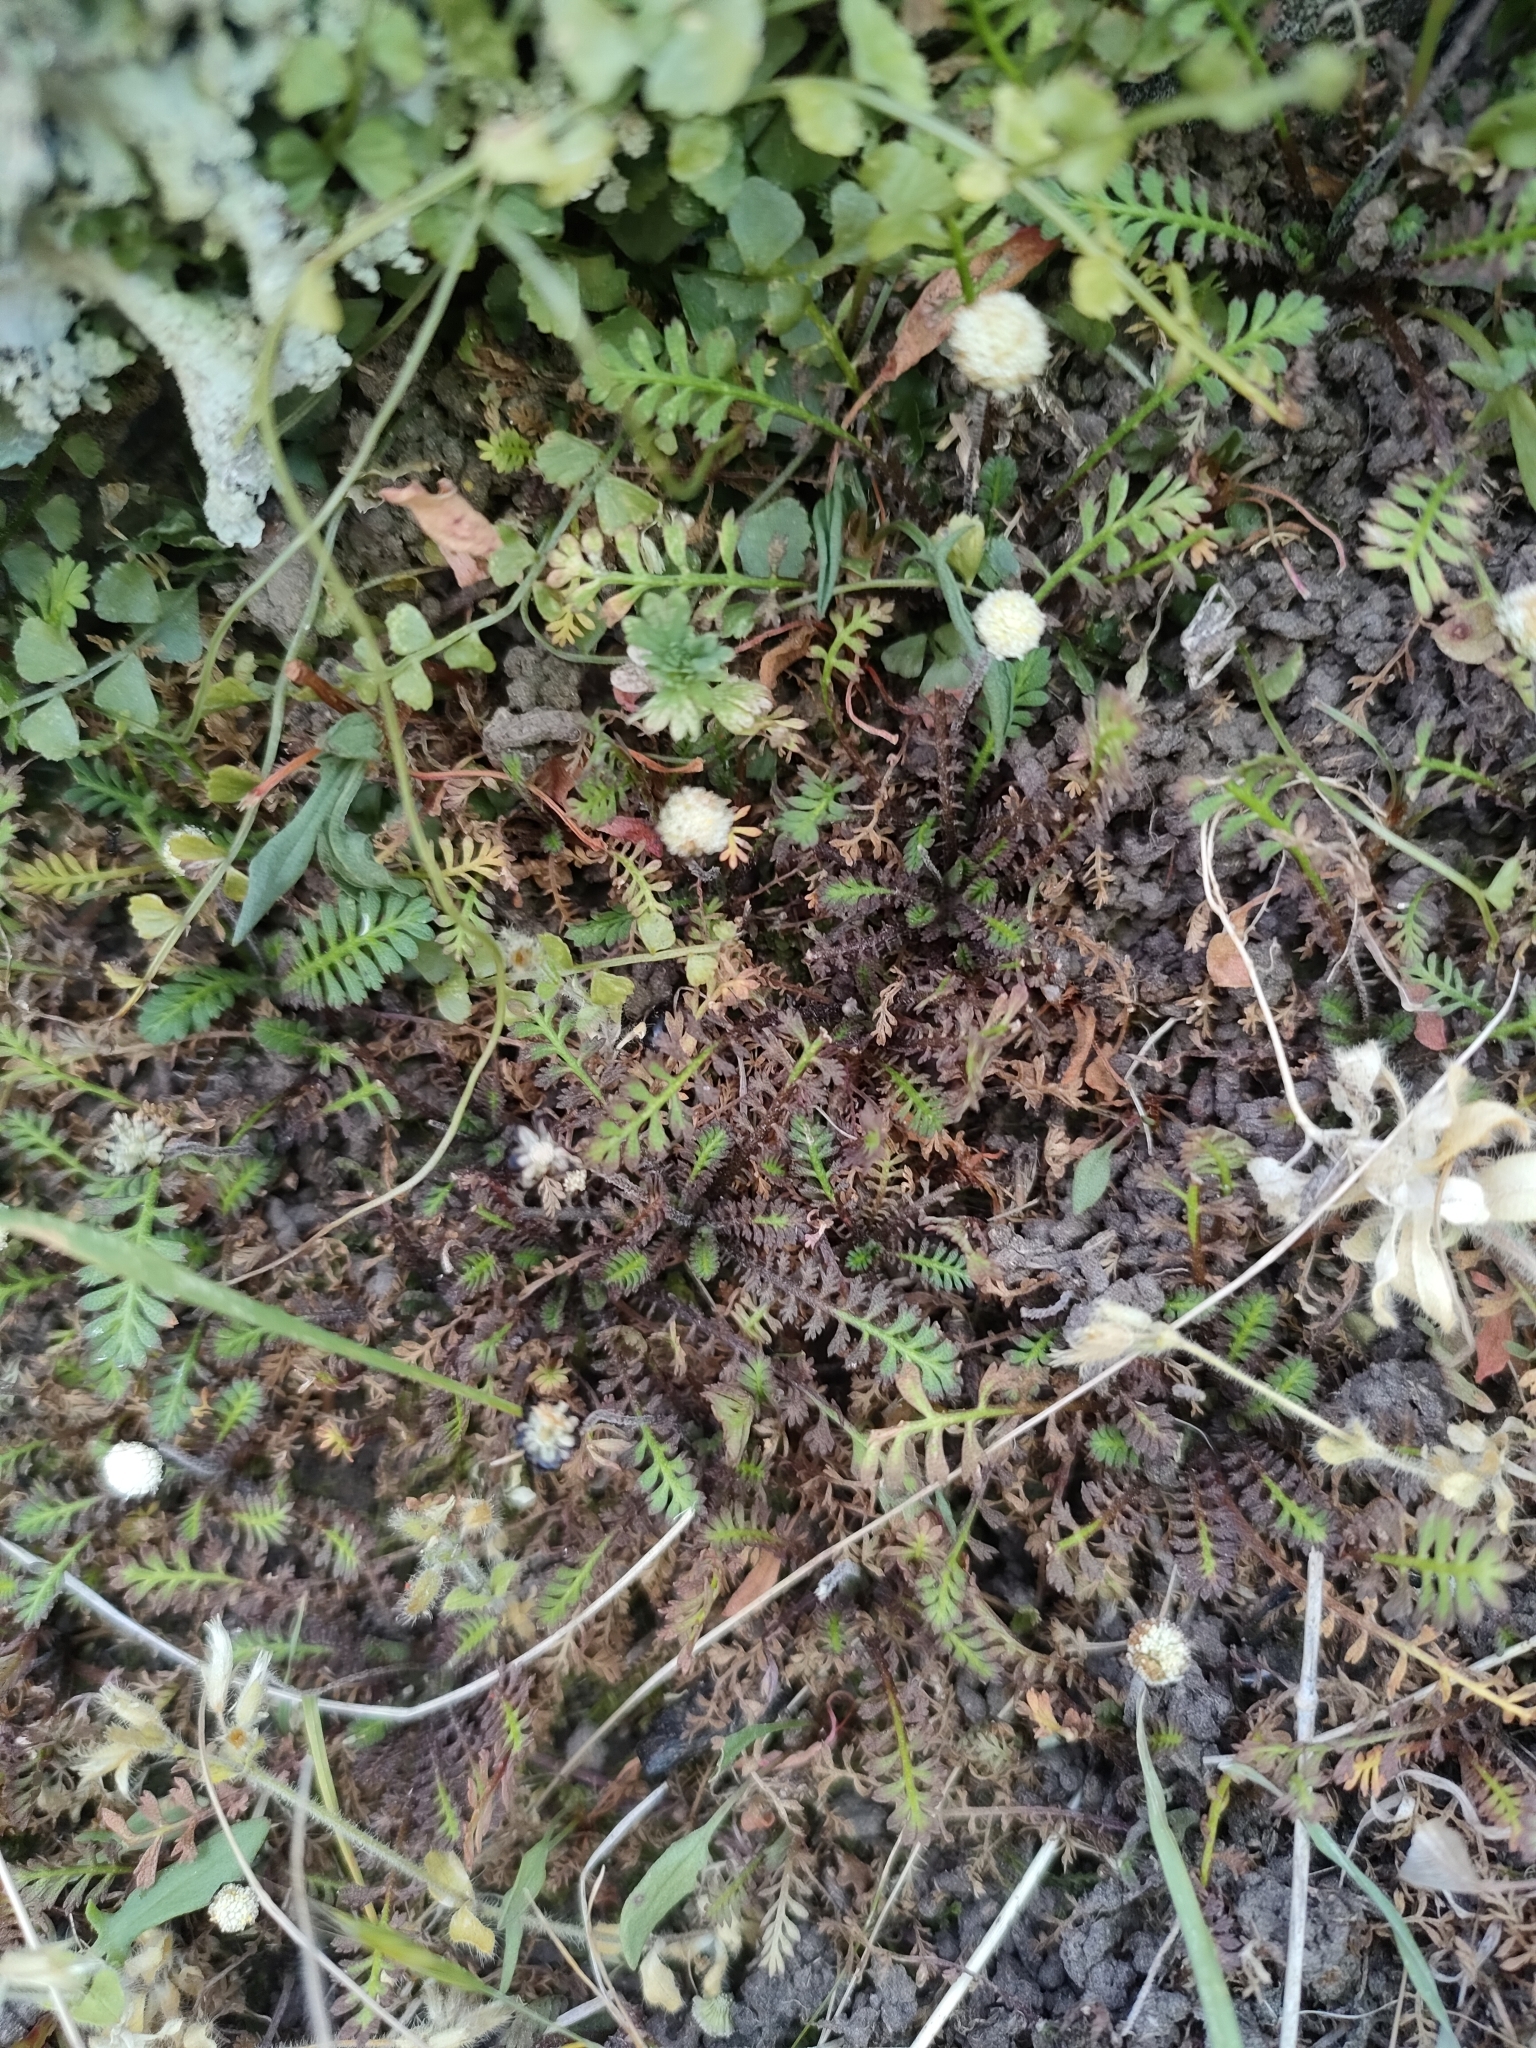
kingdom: Plantae
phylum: Tracheophyta
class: Magnoliopsida
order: Asterales
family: Asteraceae
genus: Leptinella
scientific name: Leptinella minor
